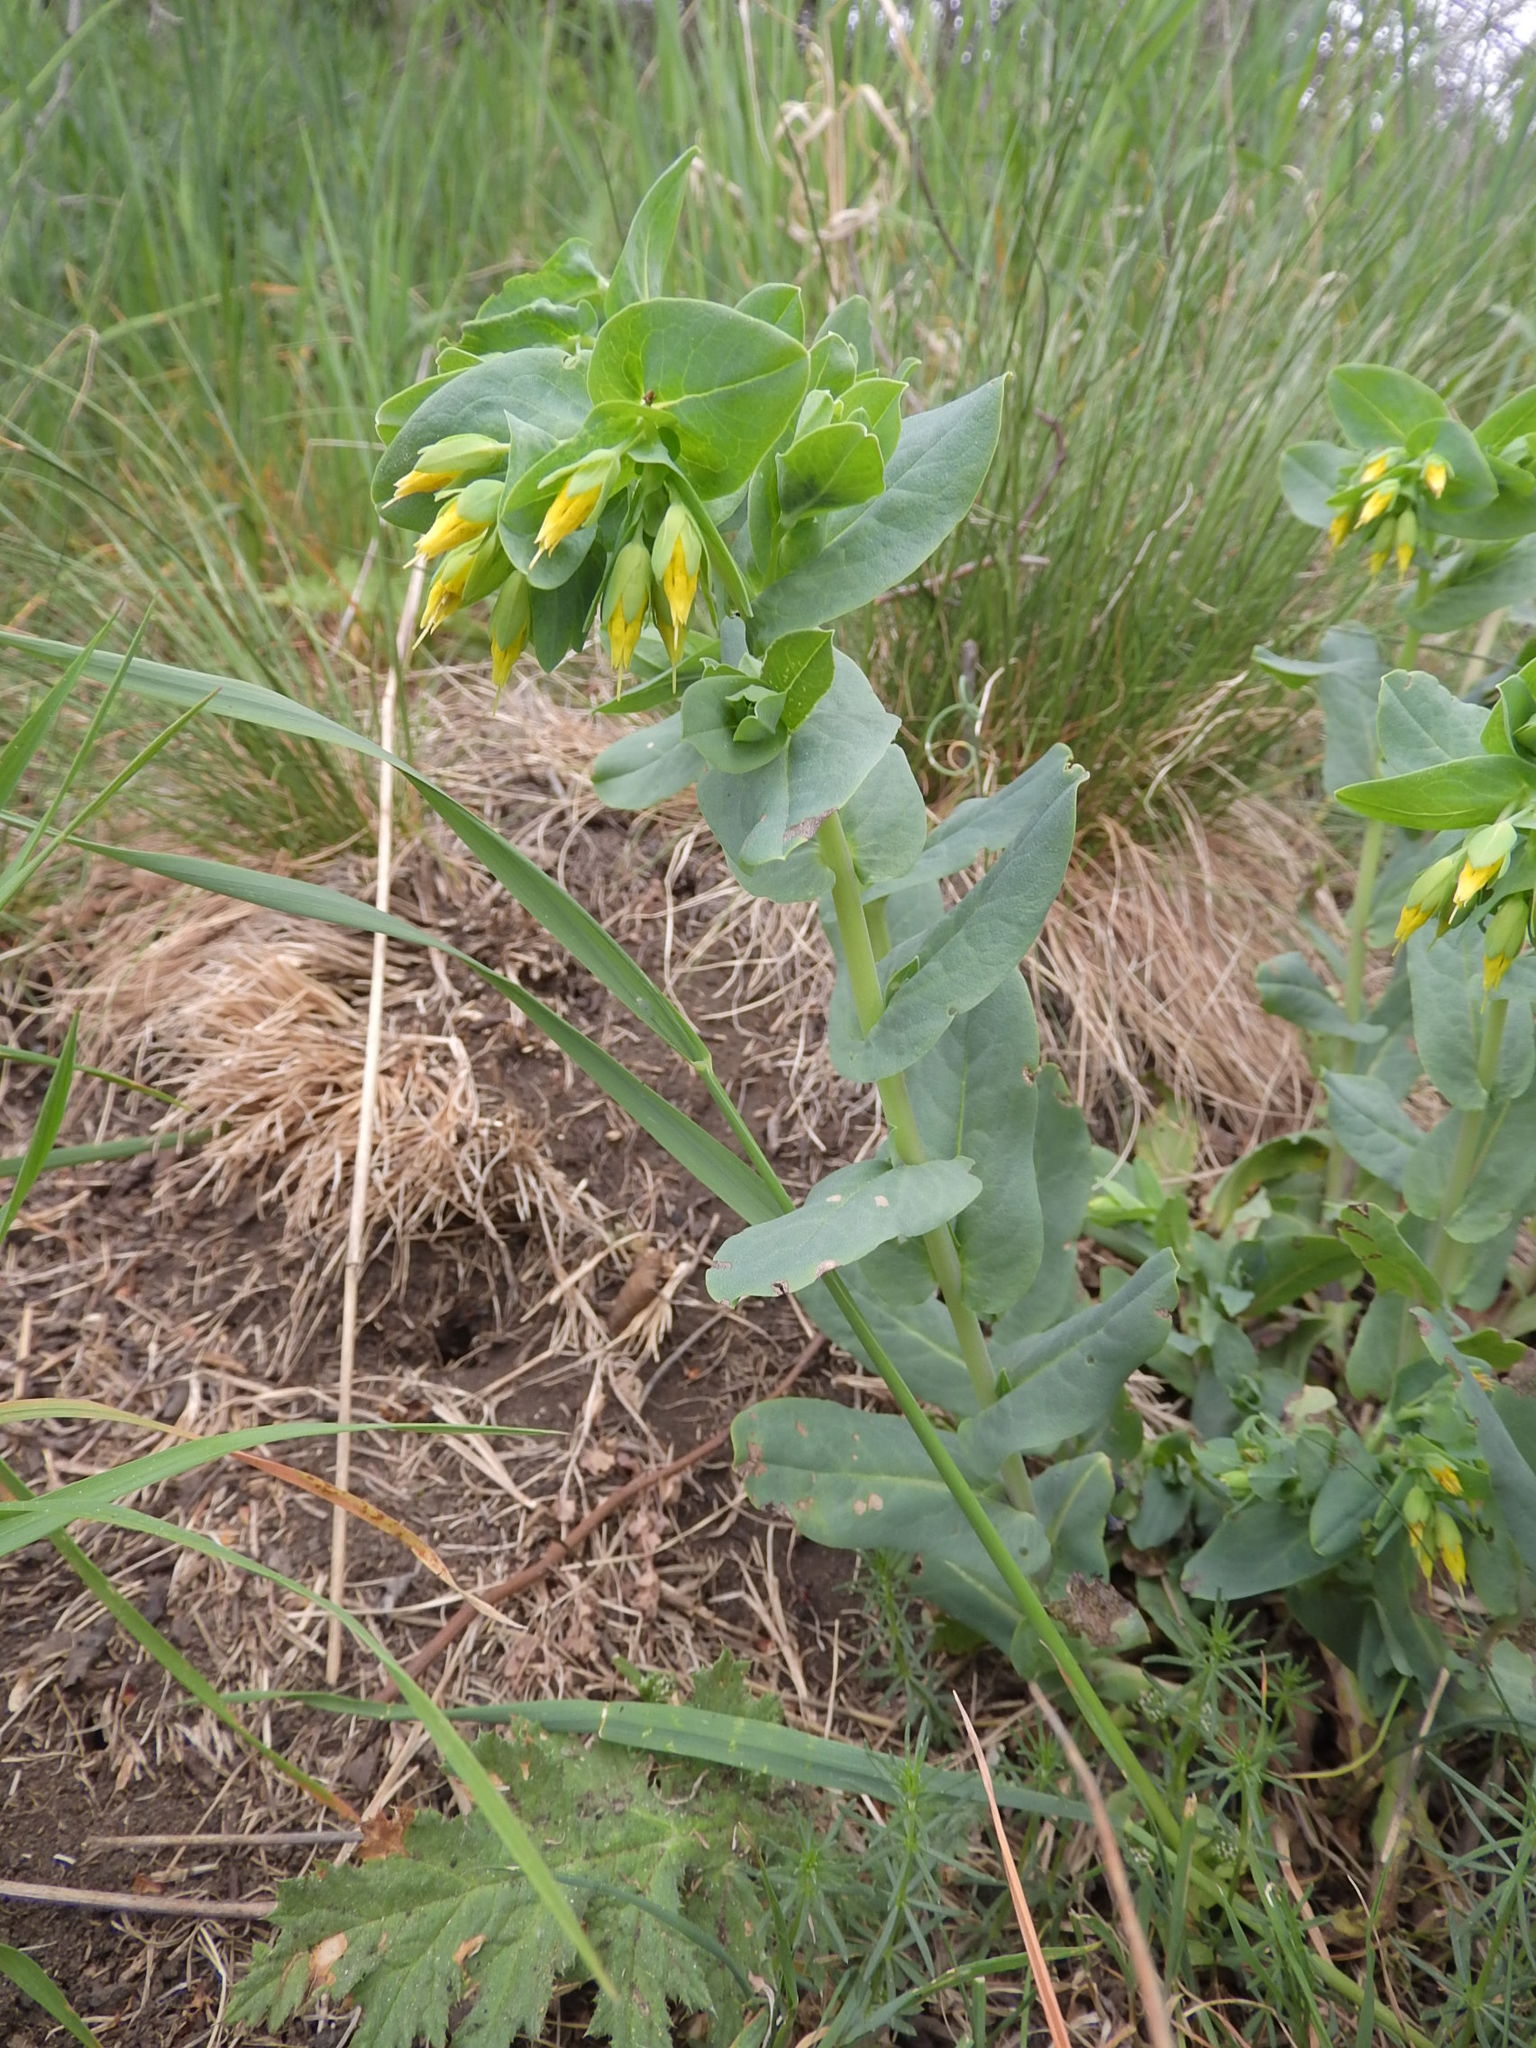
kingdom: Plantae
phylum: Tracheophyta
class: Magnoliopsida
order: Boraginales
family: Boraginaceae
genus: Cerinthe
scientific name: Cerinthe minor
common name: Lesser honeywort
